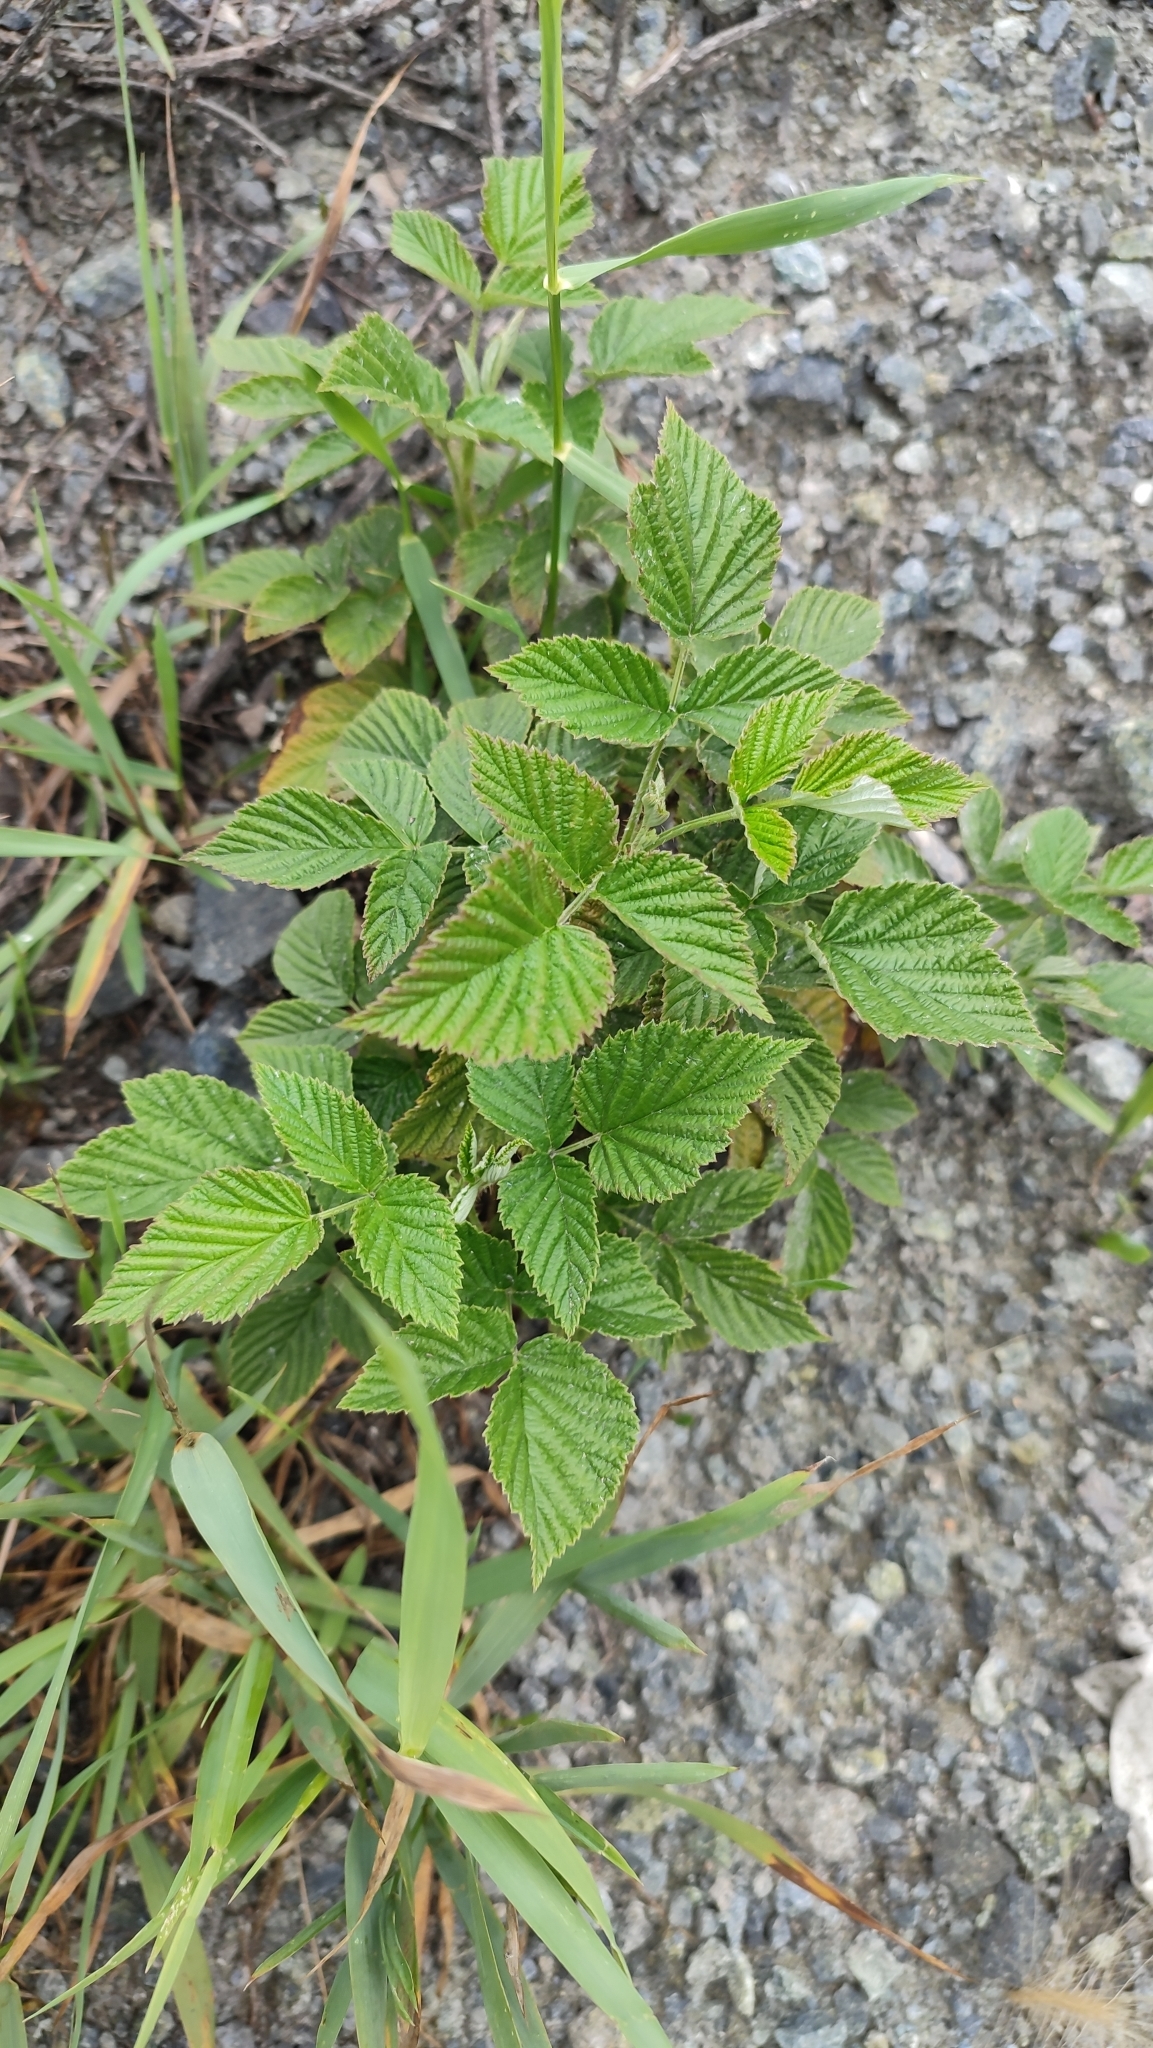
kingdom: Plantae
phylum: Tracheophyta
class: Magnoliopsida
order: Rosales
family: Rosaceae
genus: Rubus
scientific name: Rubus idaeus
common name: Raspberry
